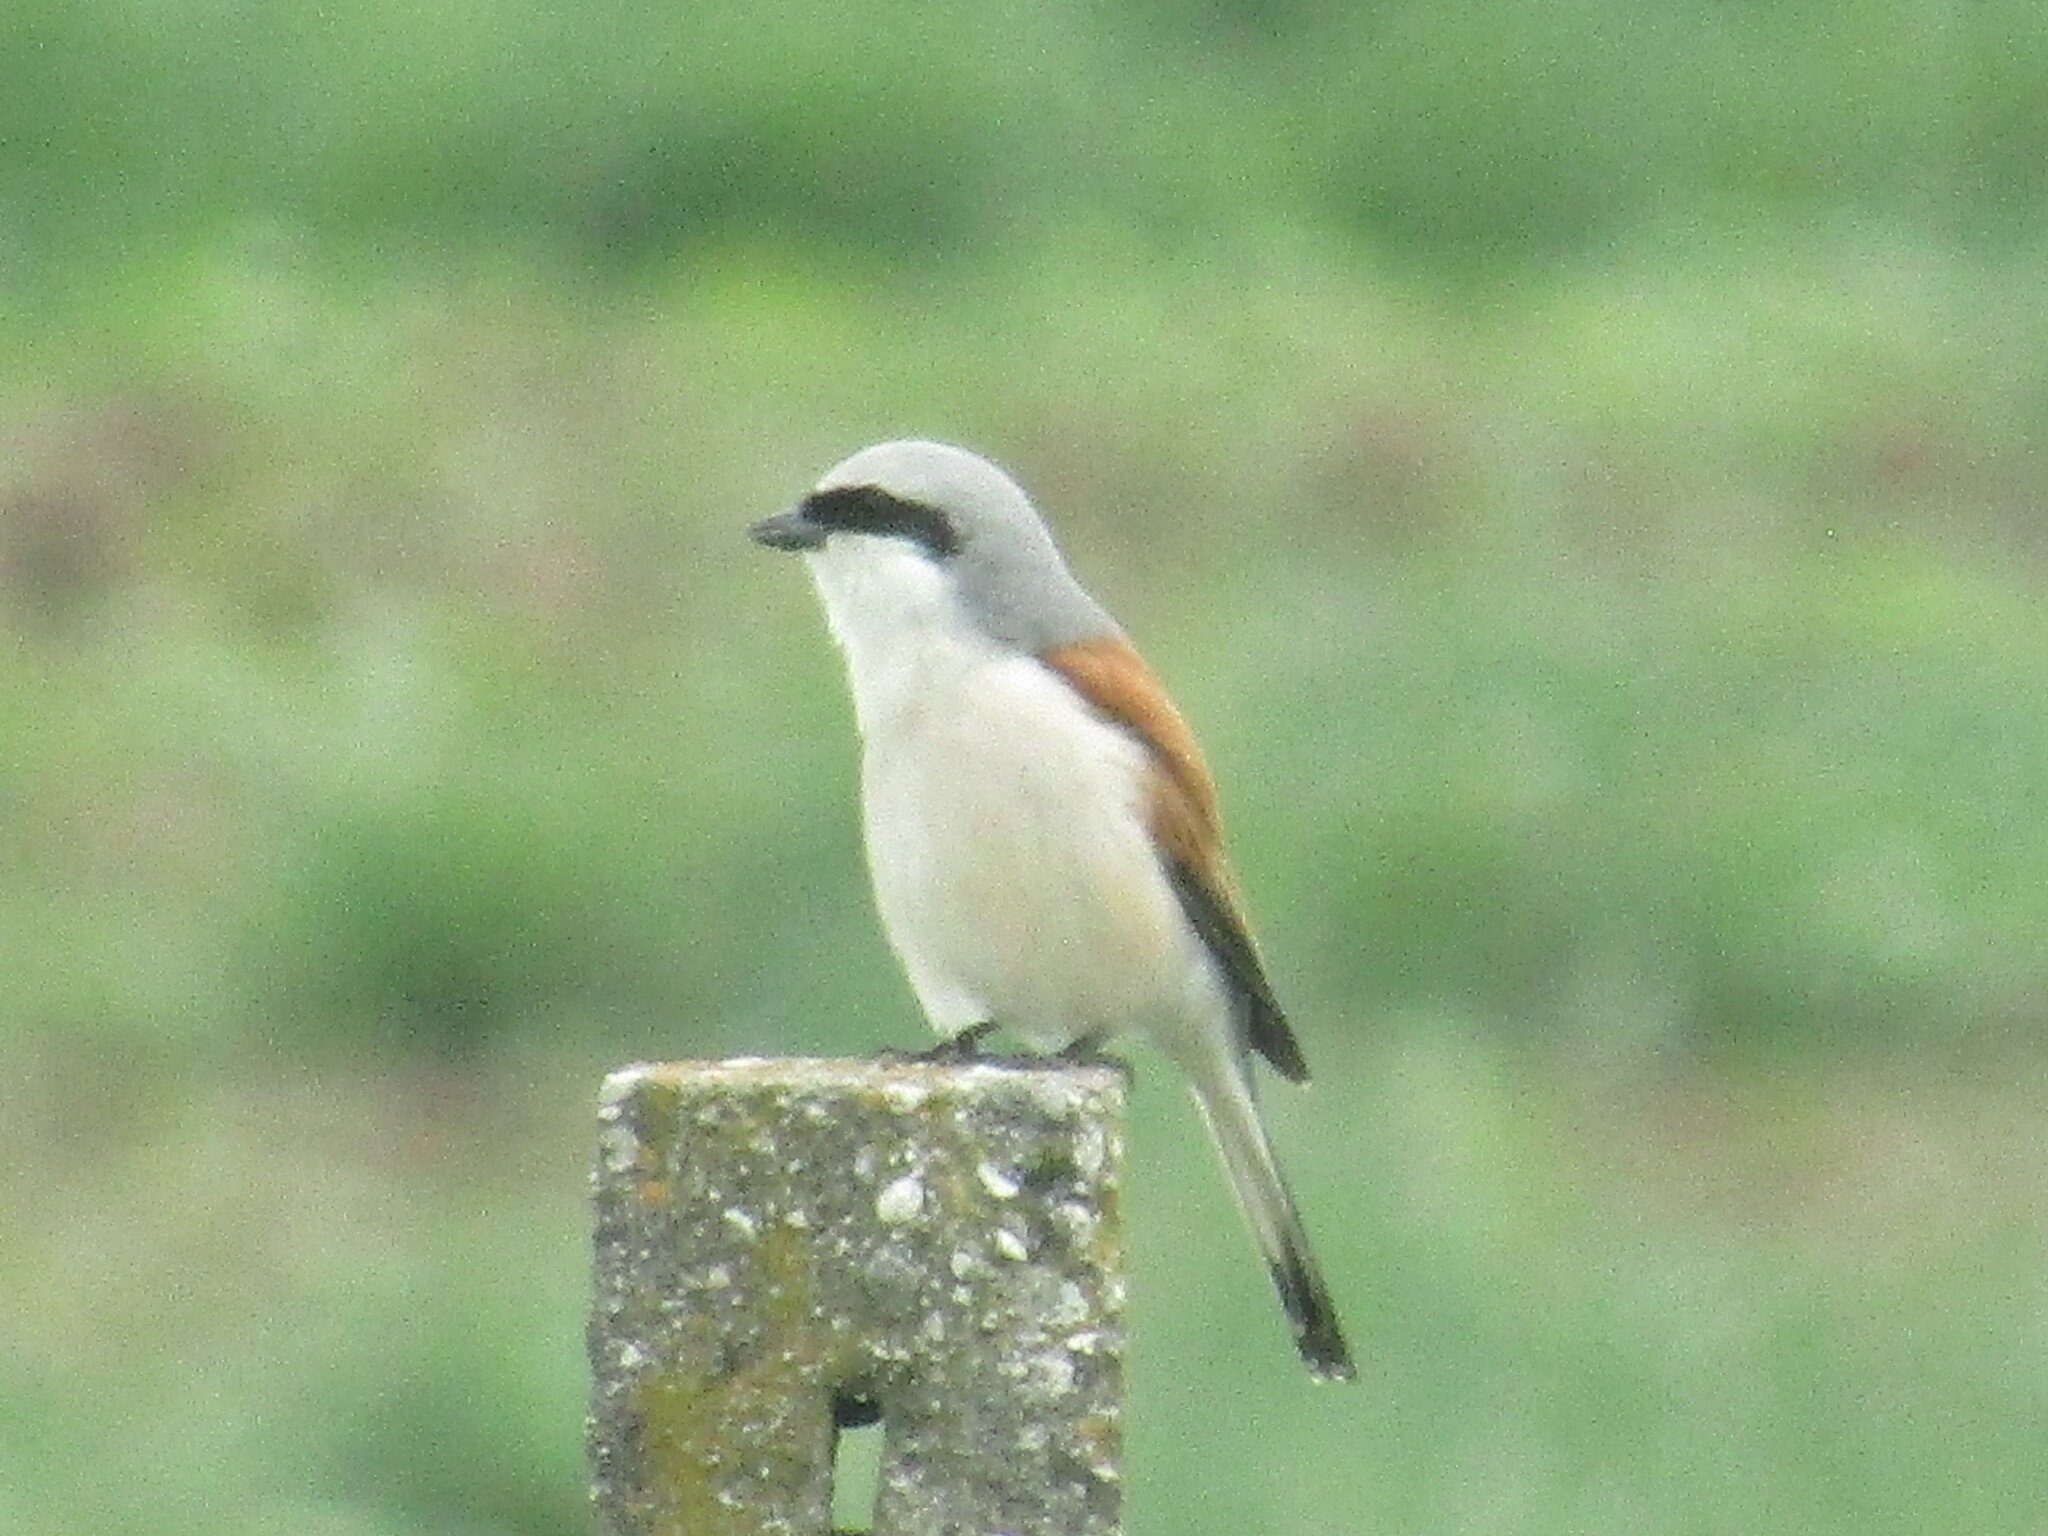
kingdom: Animalia
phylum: Chordata
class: Aves
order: Passeriformes
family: Laniidae
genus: Lanius
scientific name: Lanius collurio
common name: Red-backed shrike
